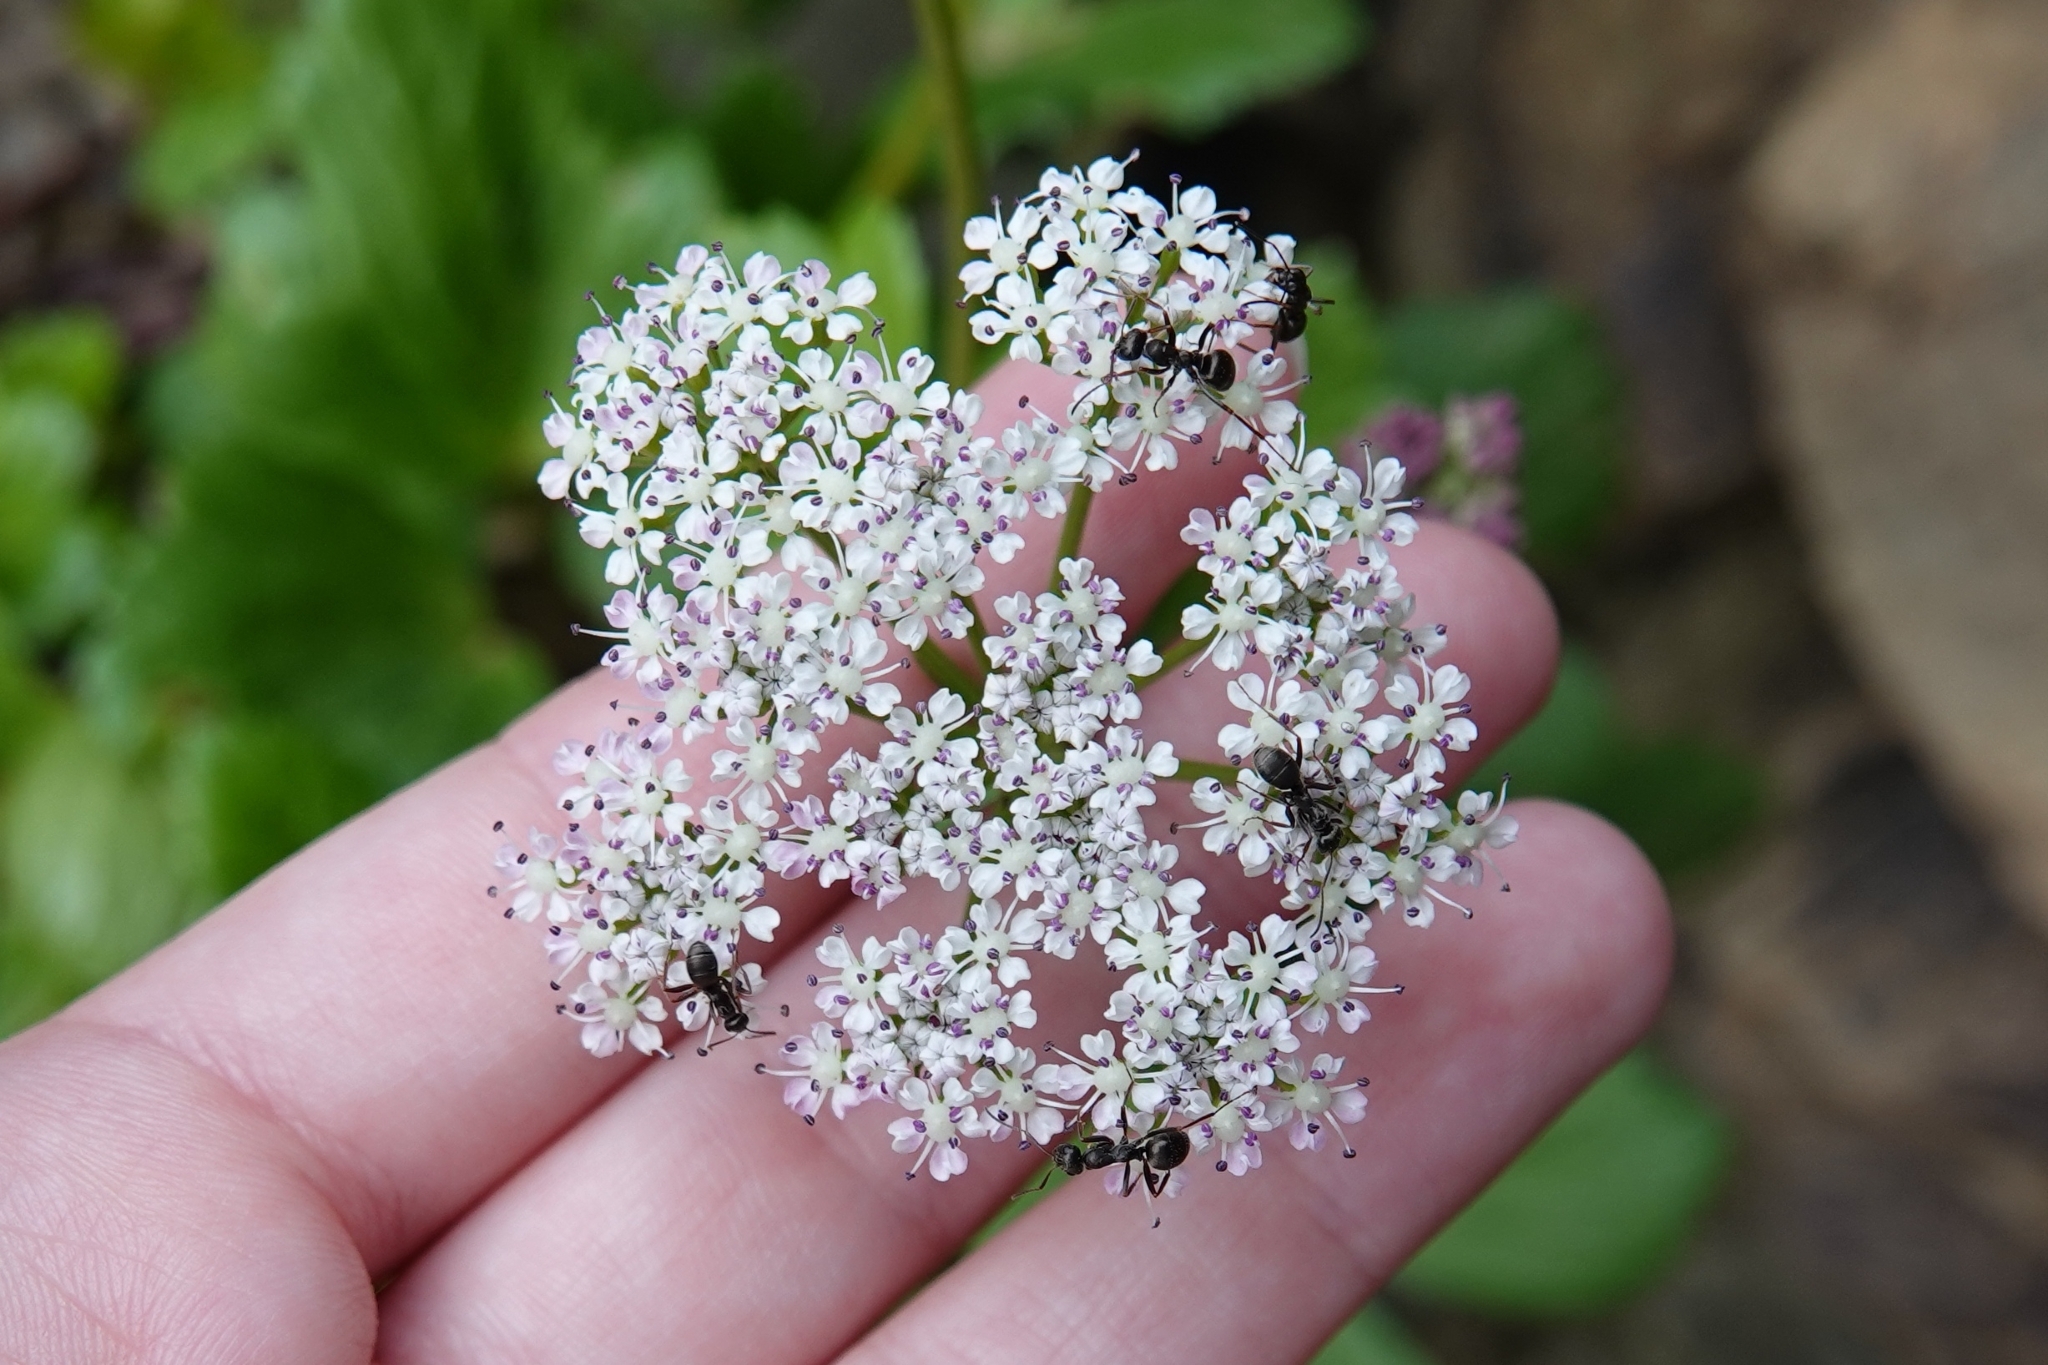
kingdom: Plantae
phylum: Tracheophyta
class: Magnoliopsida
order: Apiales
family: Apiaceae
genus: Ligusticum
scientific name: Ligusticum scothicum
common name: Beach lovage
